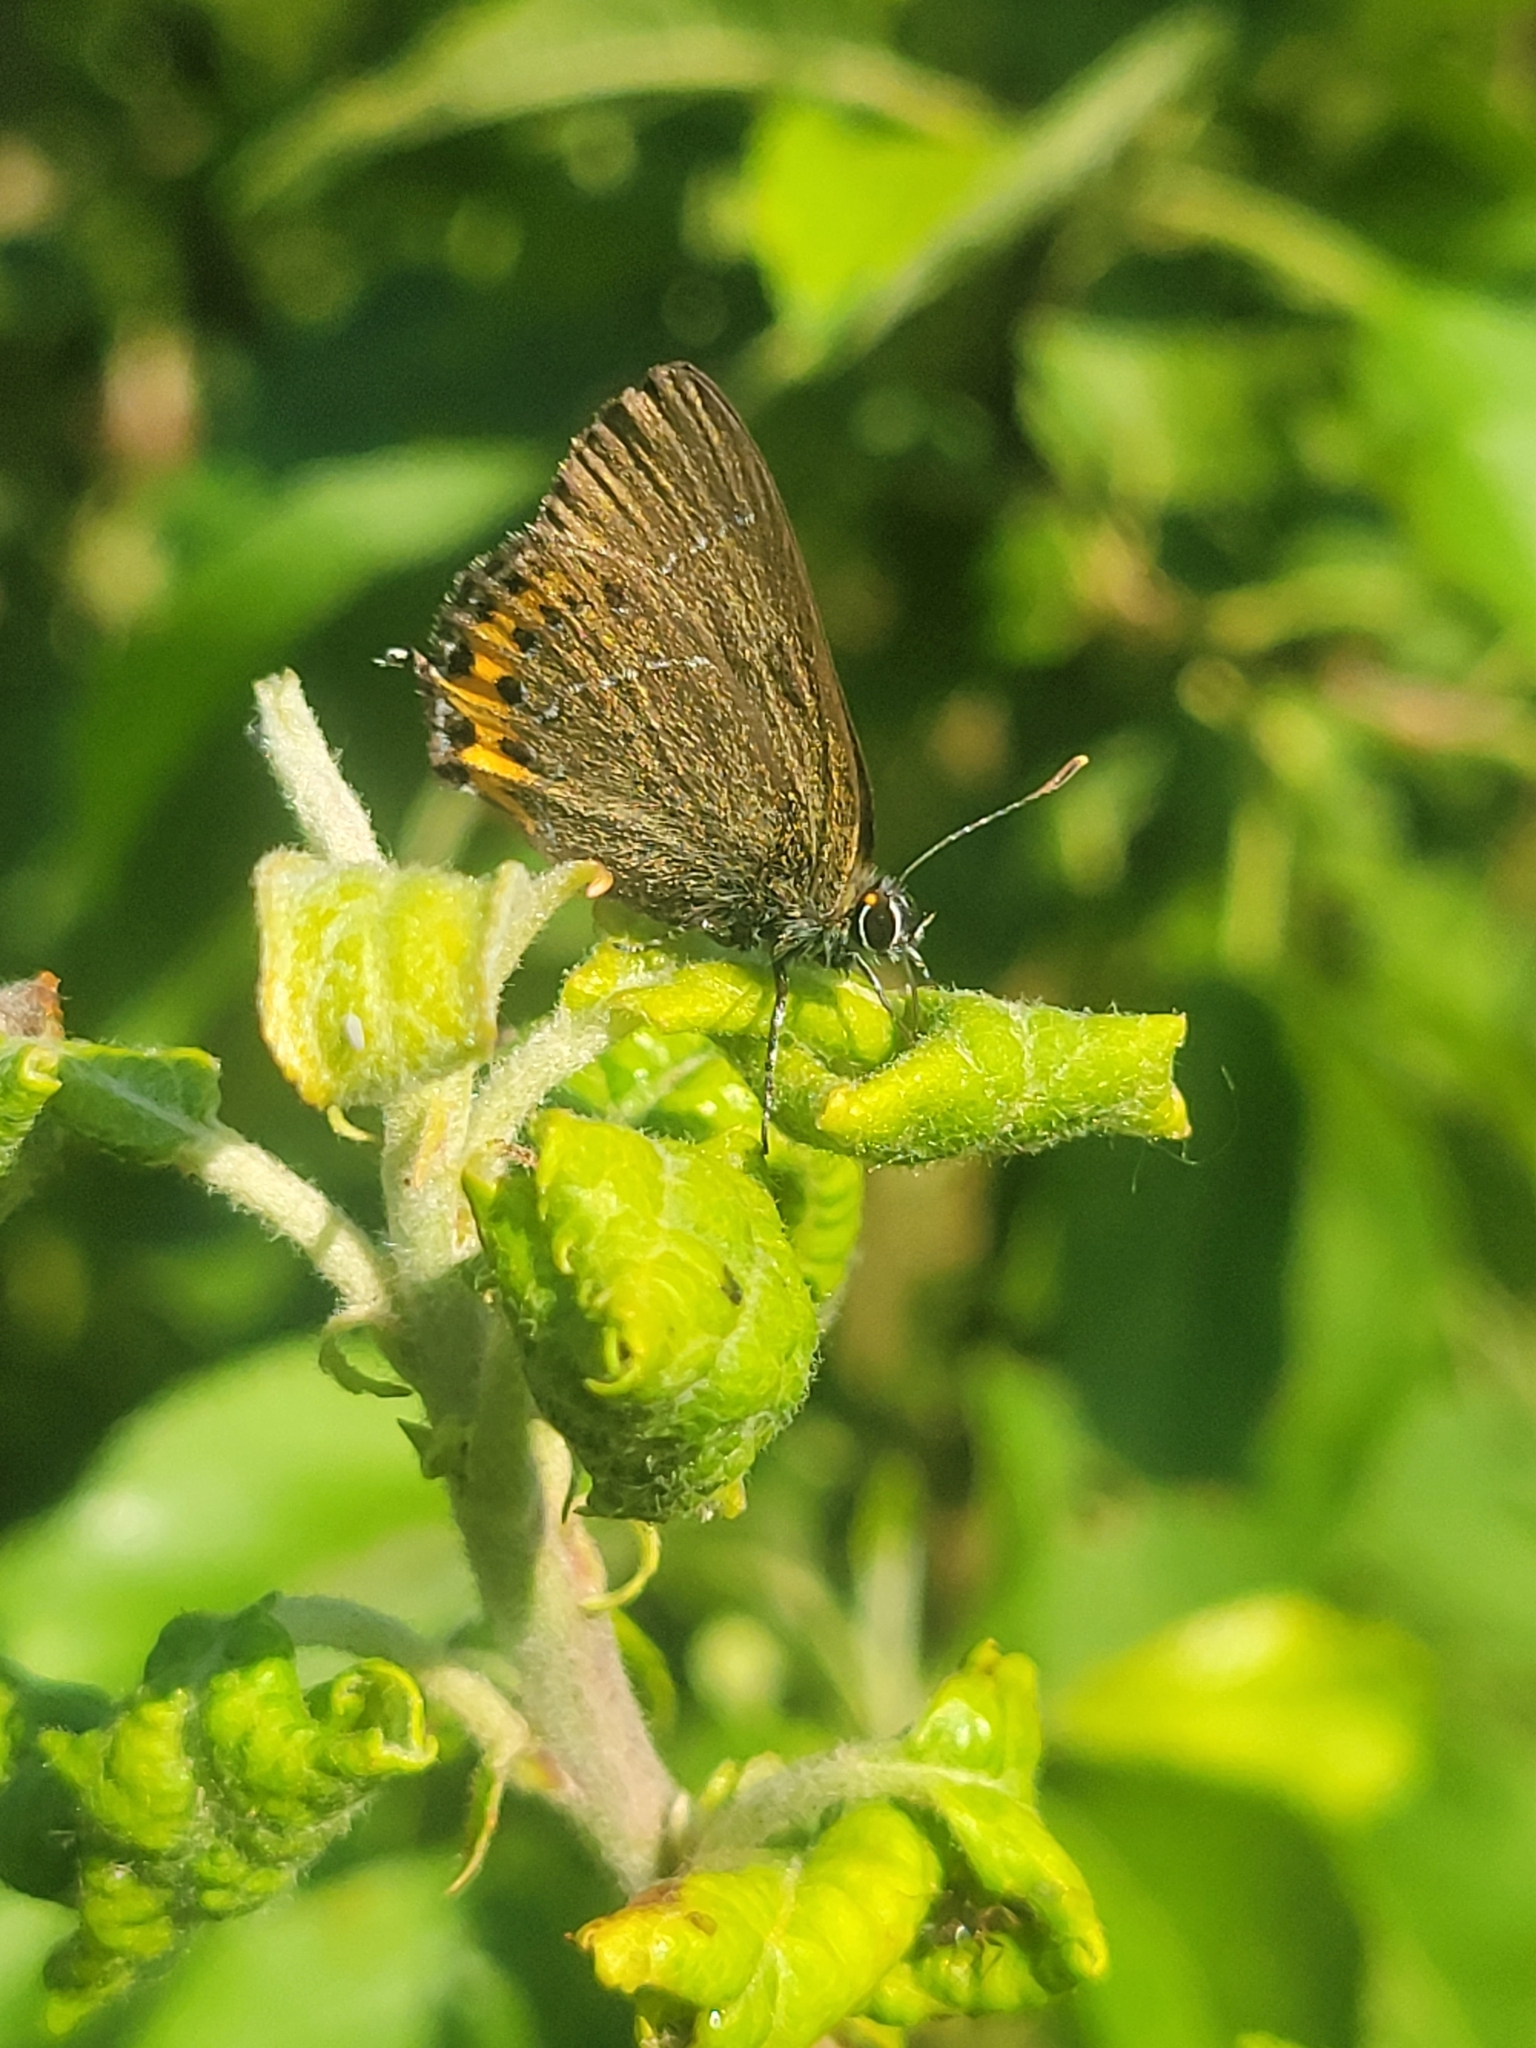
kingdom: Animalia
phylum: Arthropoda
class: Insecta
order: Lepidoptera
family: Lycaenidae
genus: Fixsenia
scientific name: Fixsenia pruni
